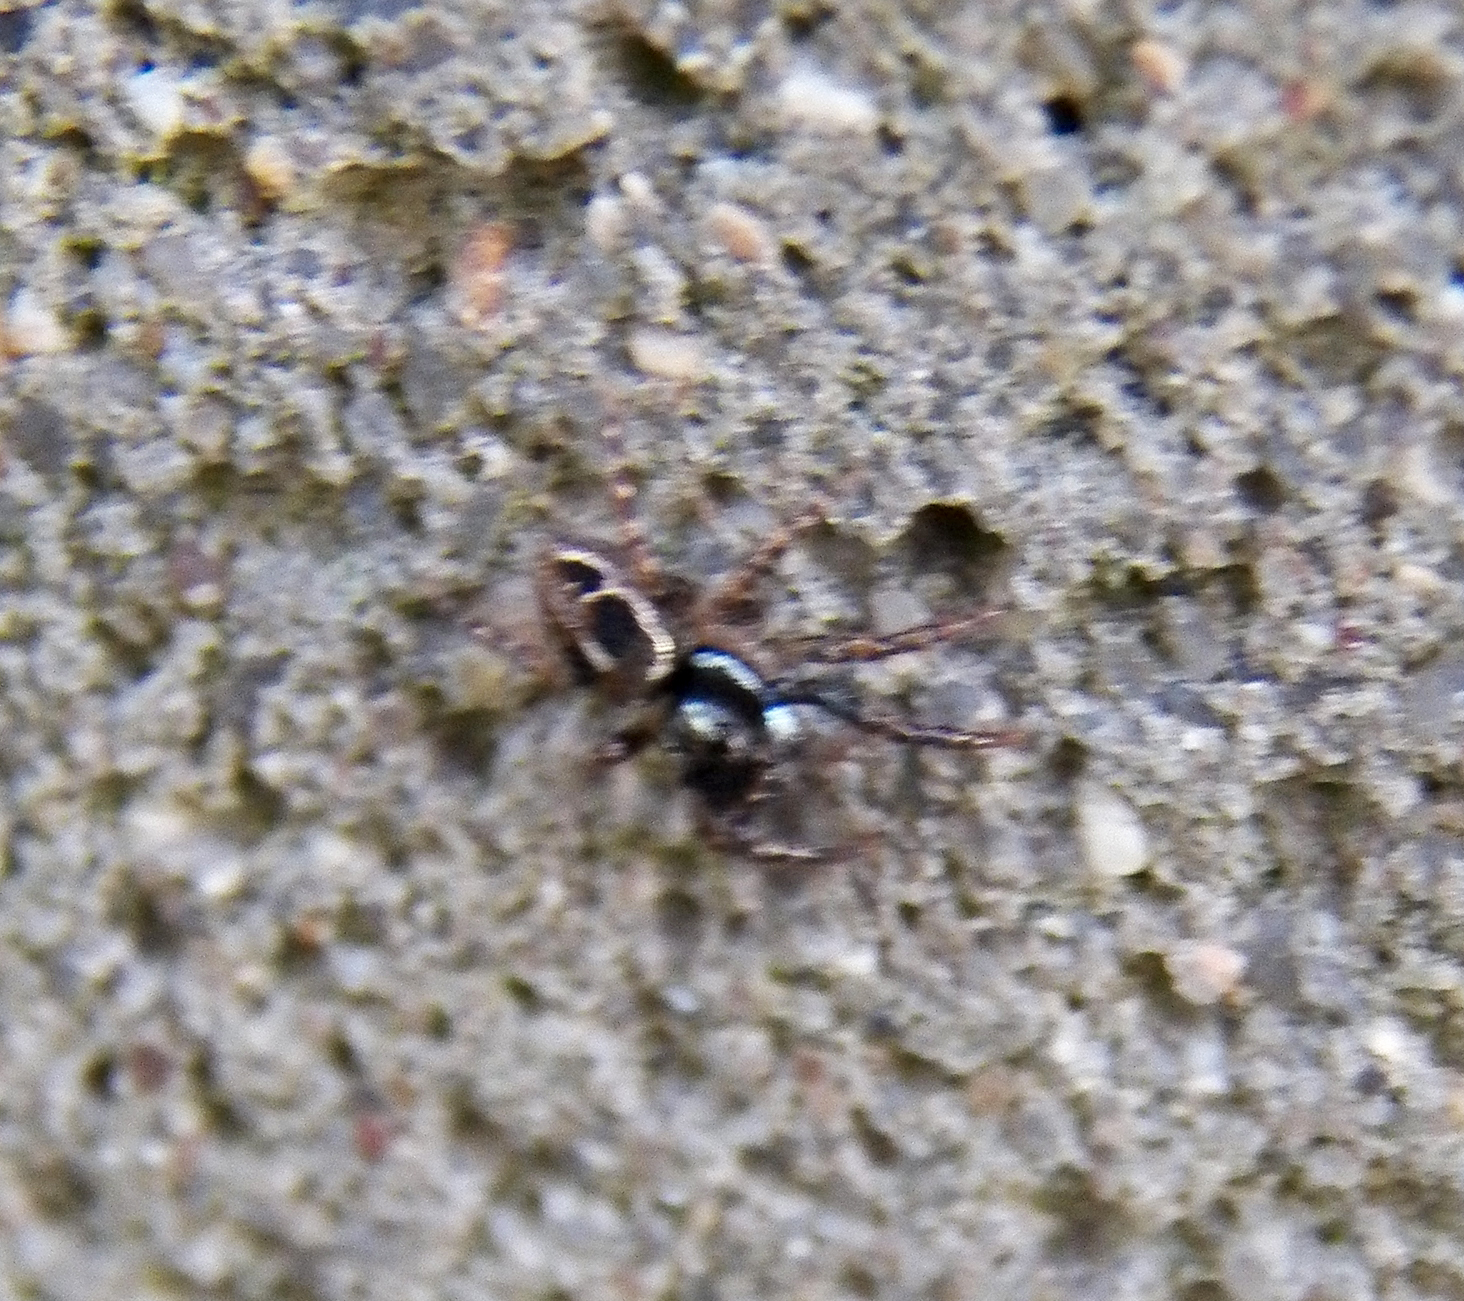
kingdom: Animalia
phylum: Arthropoda
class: Arachnida
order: Araneae
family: Salticidae
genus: Anasaitis
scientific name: Anasaitis canosa
